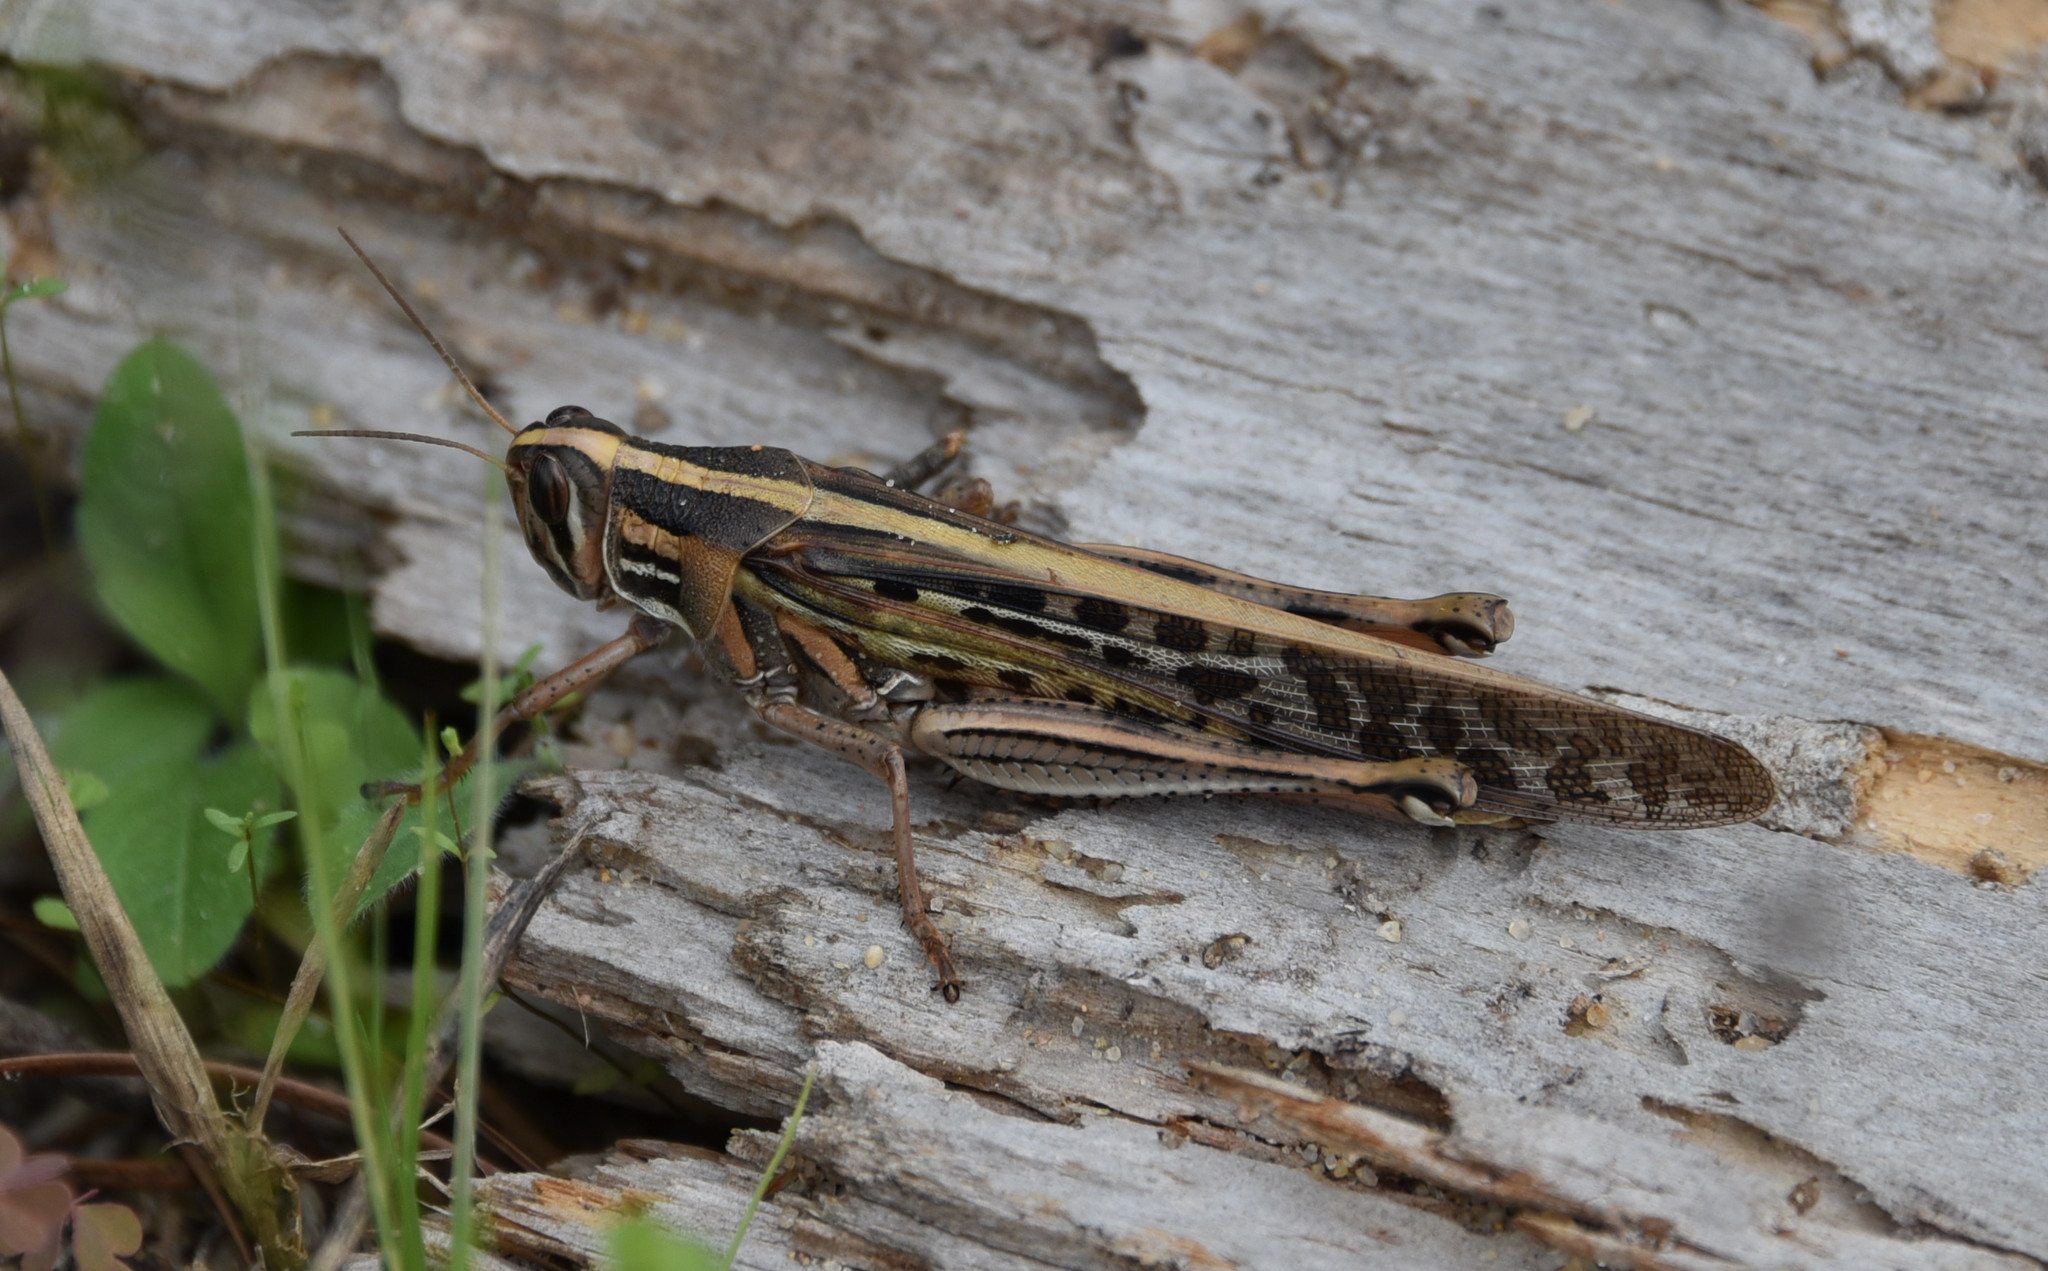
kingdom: Animalia
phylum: Arthropoda
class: Insecta
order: Orthoptera
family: Acrididae
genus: Schistocerca
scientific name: Schistocerca americana
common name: American bird locust
